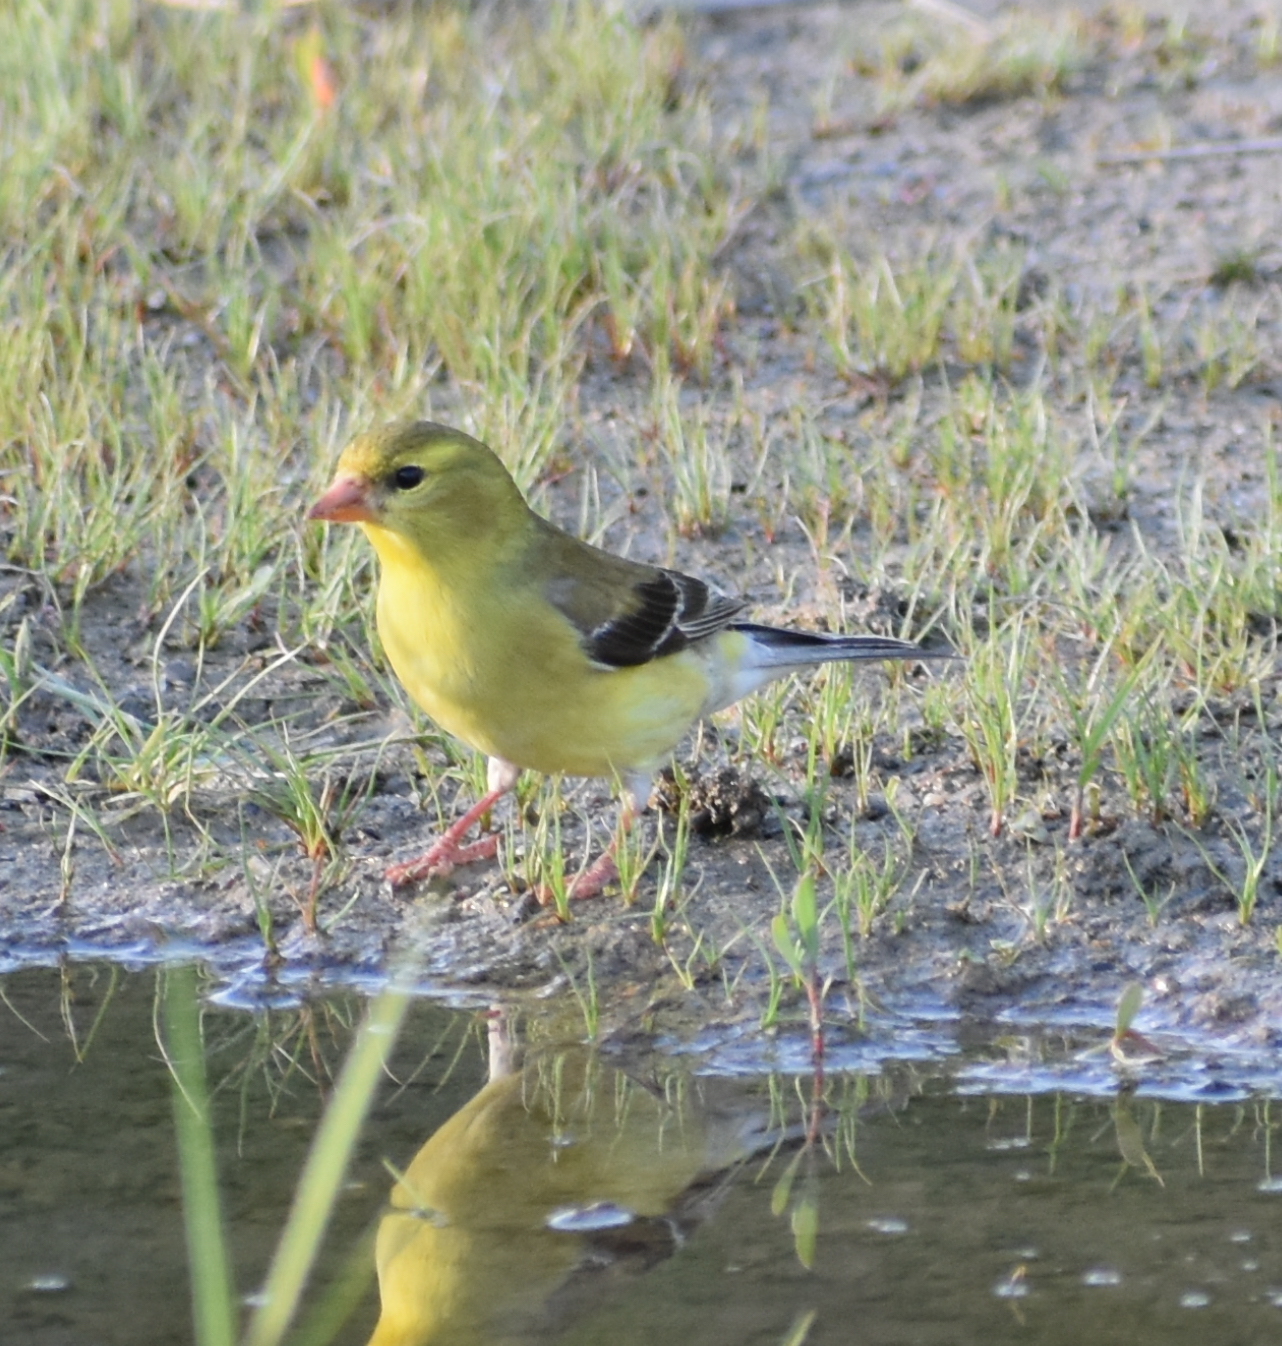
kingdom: Animalia
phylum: Chordata
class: Aves
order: Passeriformes
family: Fringillidae
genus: Spinus
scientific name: Spinus tristis
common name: American goldfinch
